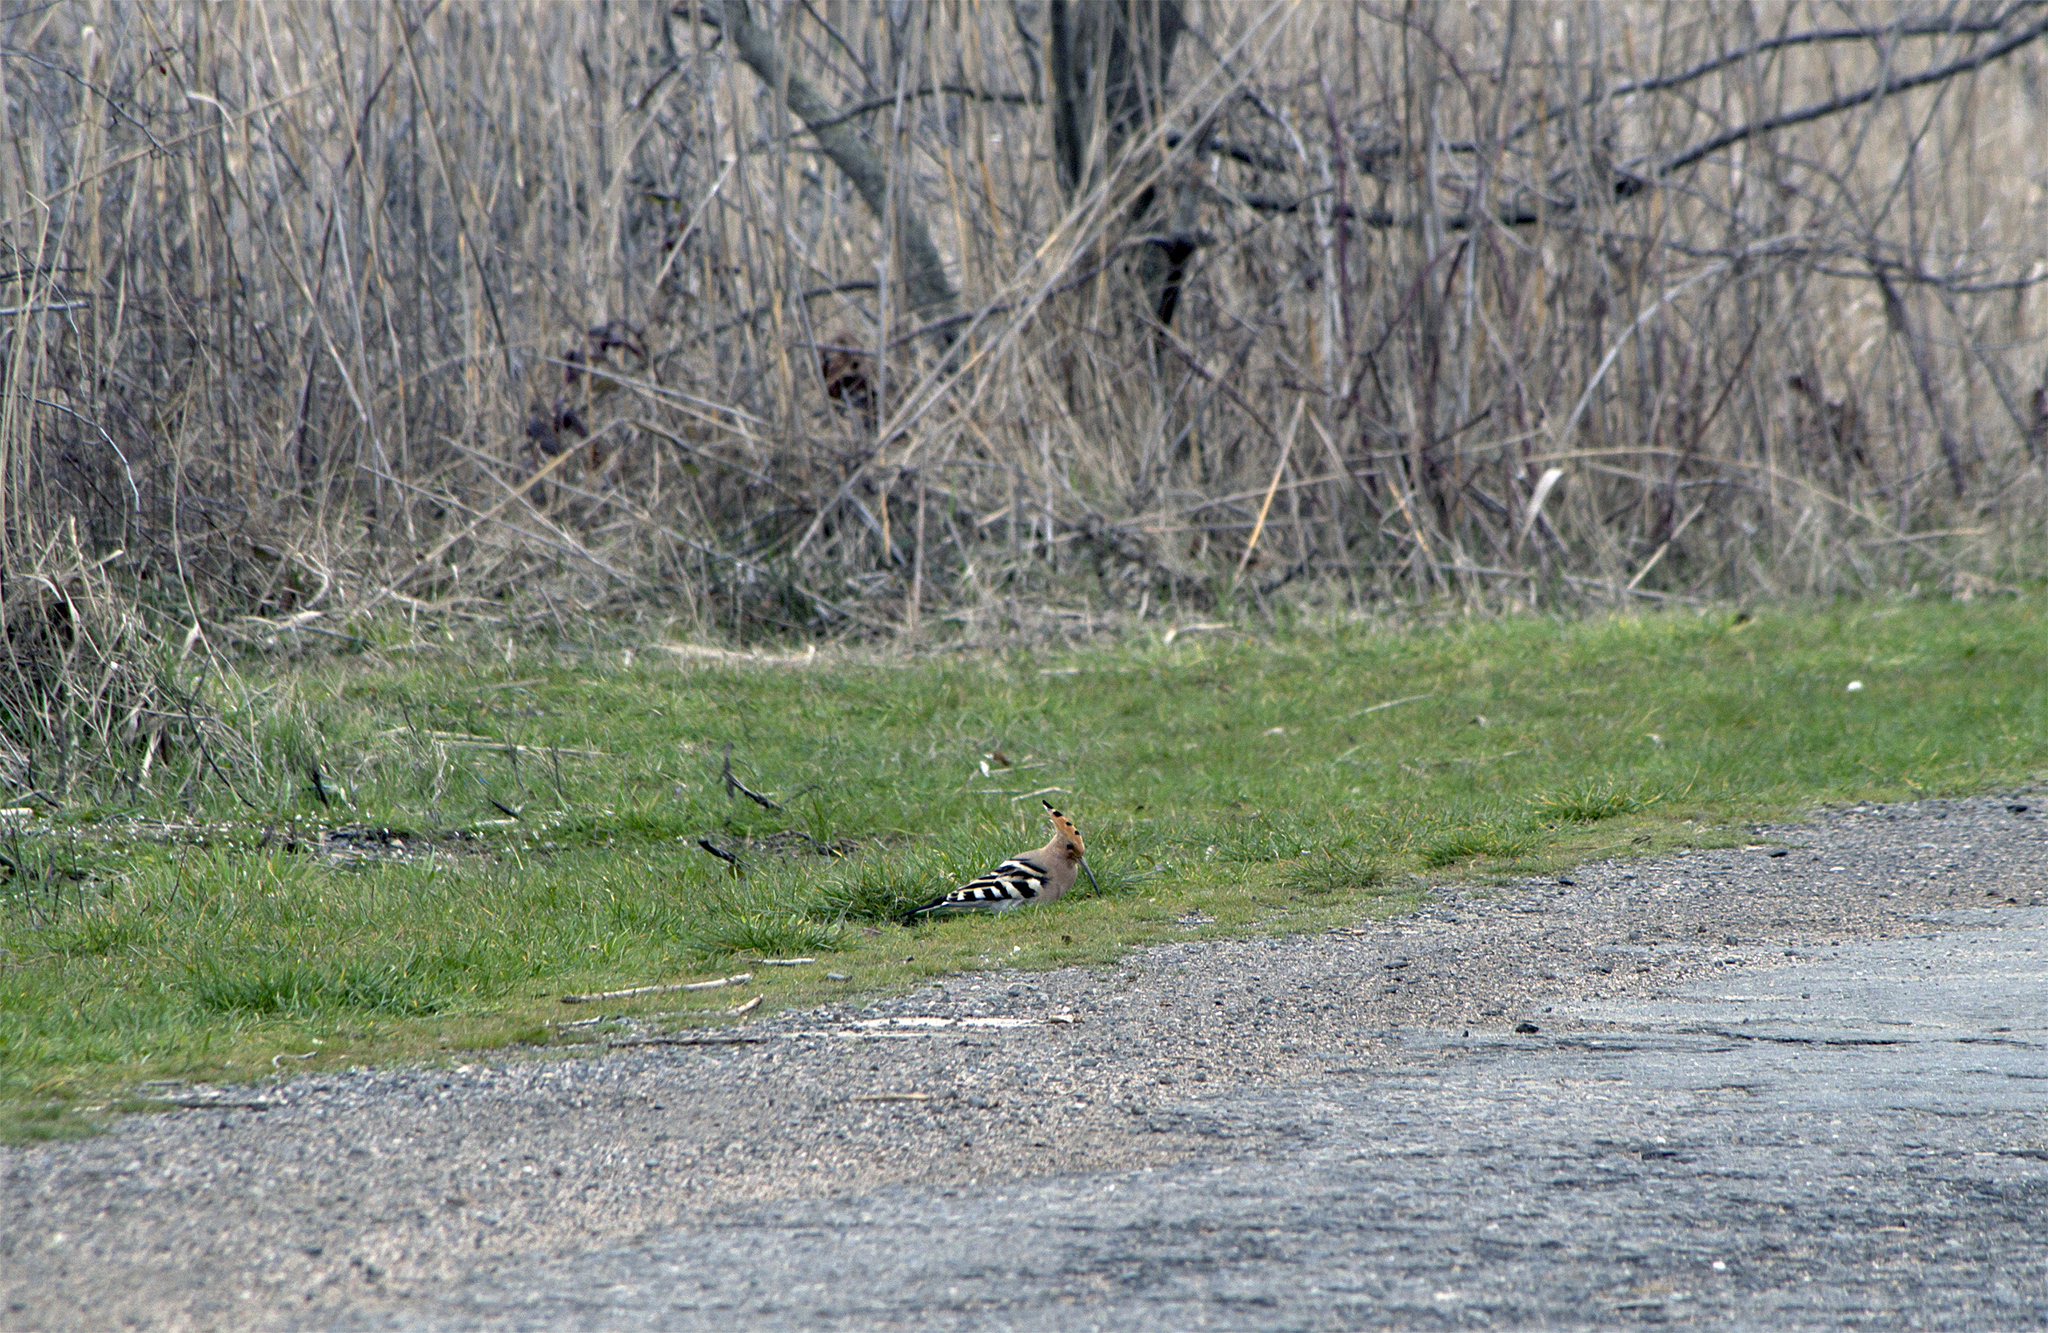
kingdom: Animalia
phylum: Chordata
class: Aves
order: Bucerotiformes
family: Upupidae
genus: Upupa
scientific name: Upupa epops
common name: Eurasian hoopoe
